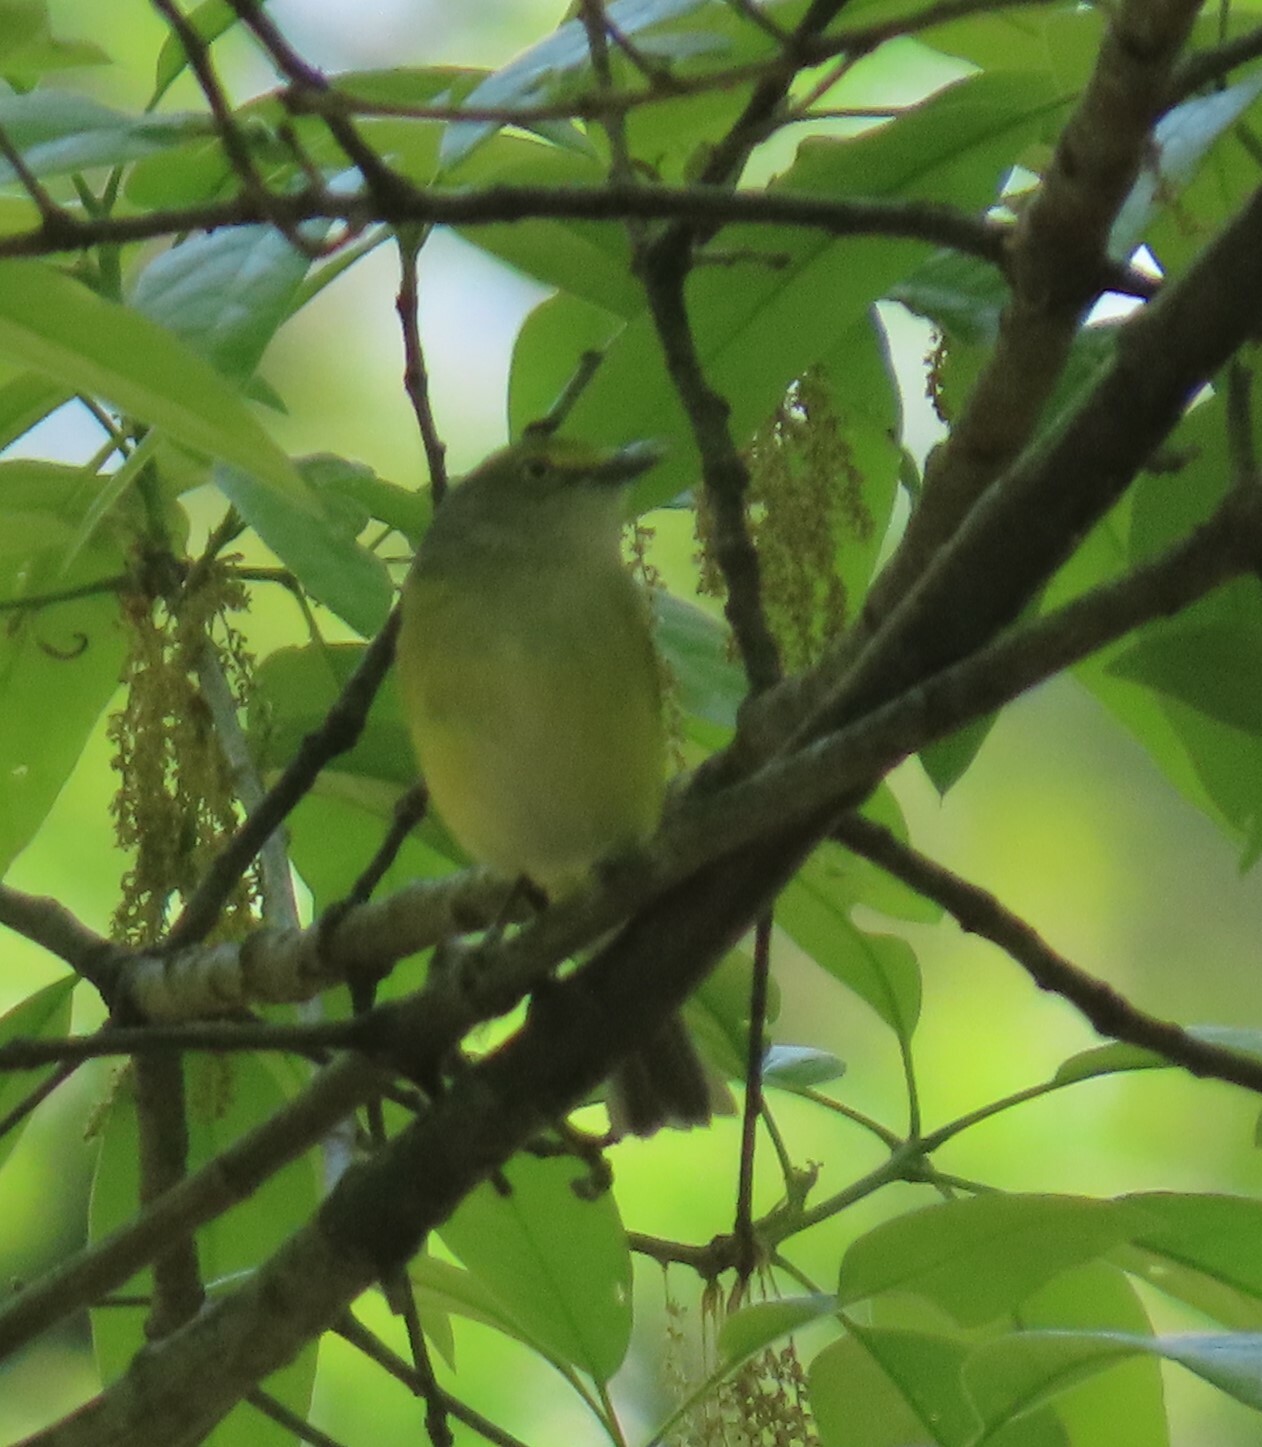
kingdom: Animalia
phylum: Chordata
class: Aves
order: Passeriformes
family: Vireonidae
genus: Vireo
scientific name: Vireo griseus
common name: White-eyed vireo
